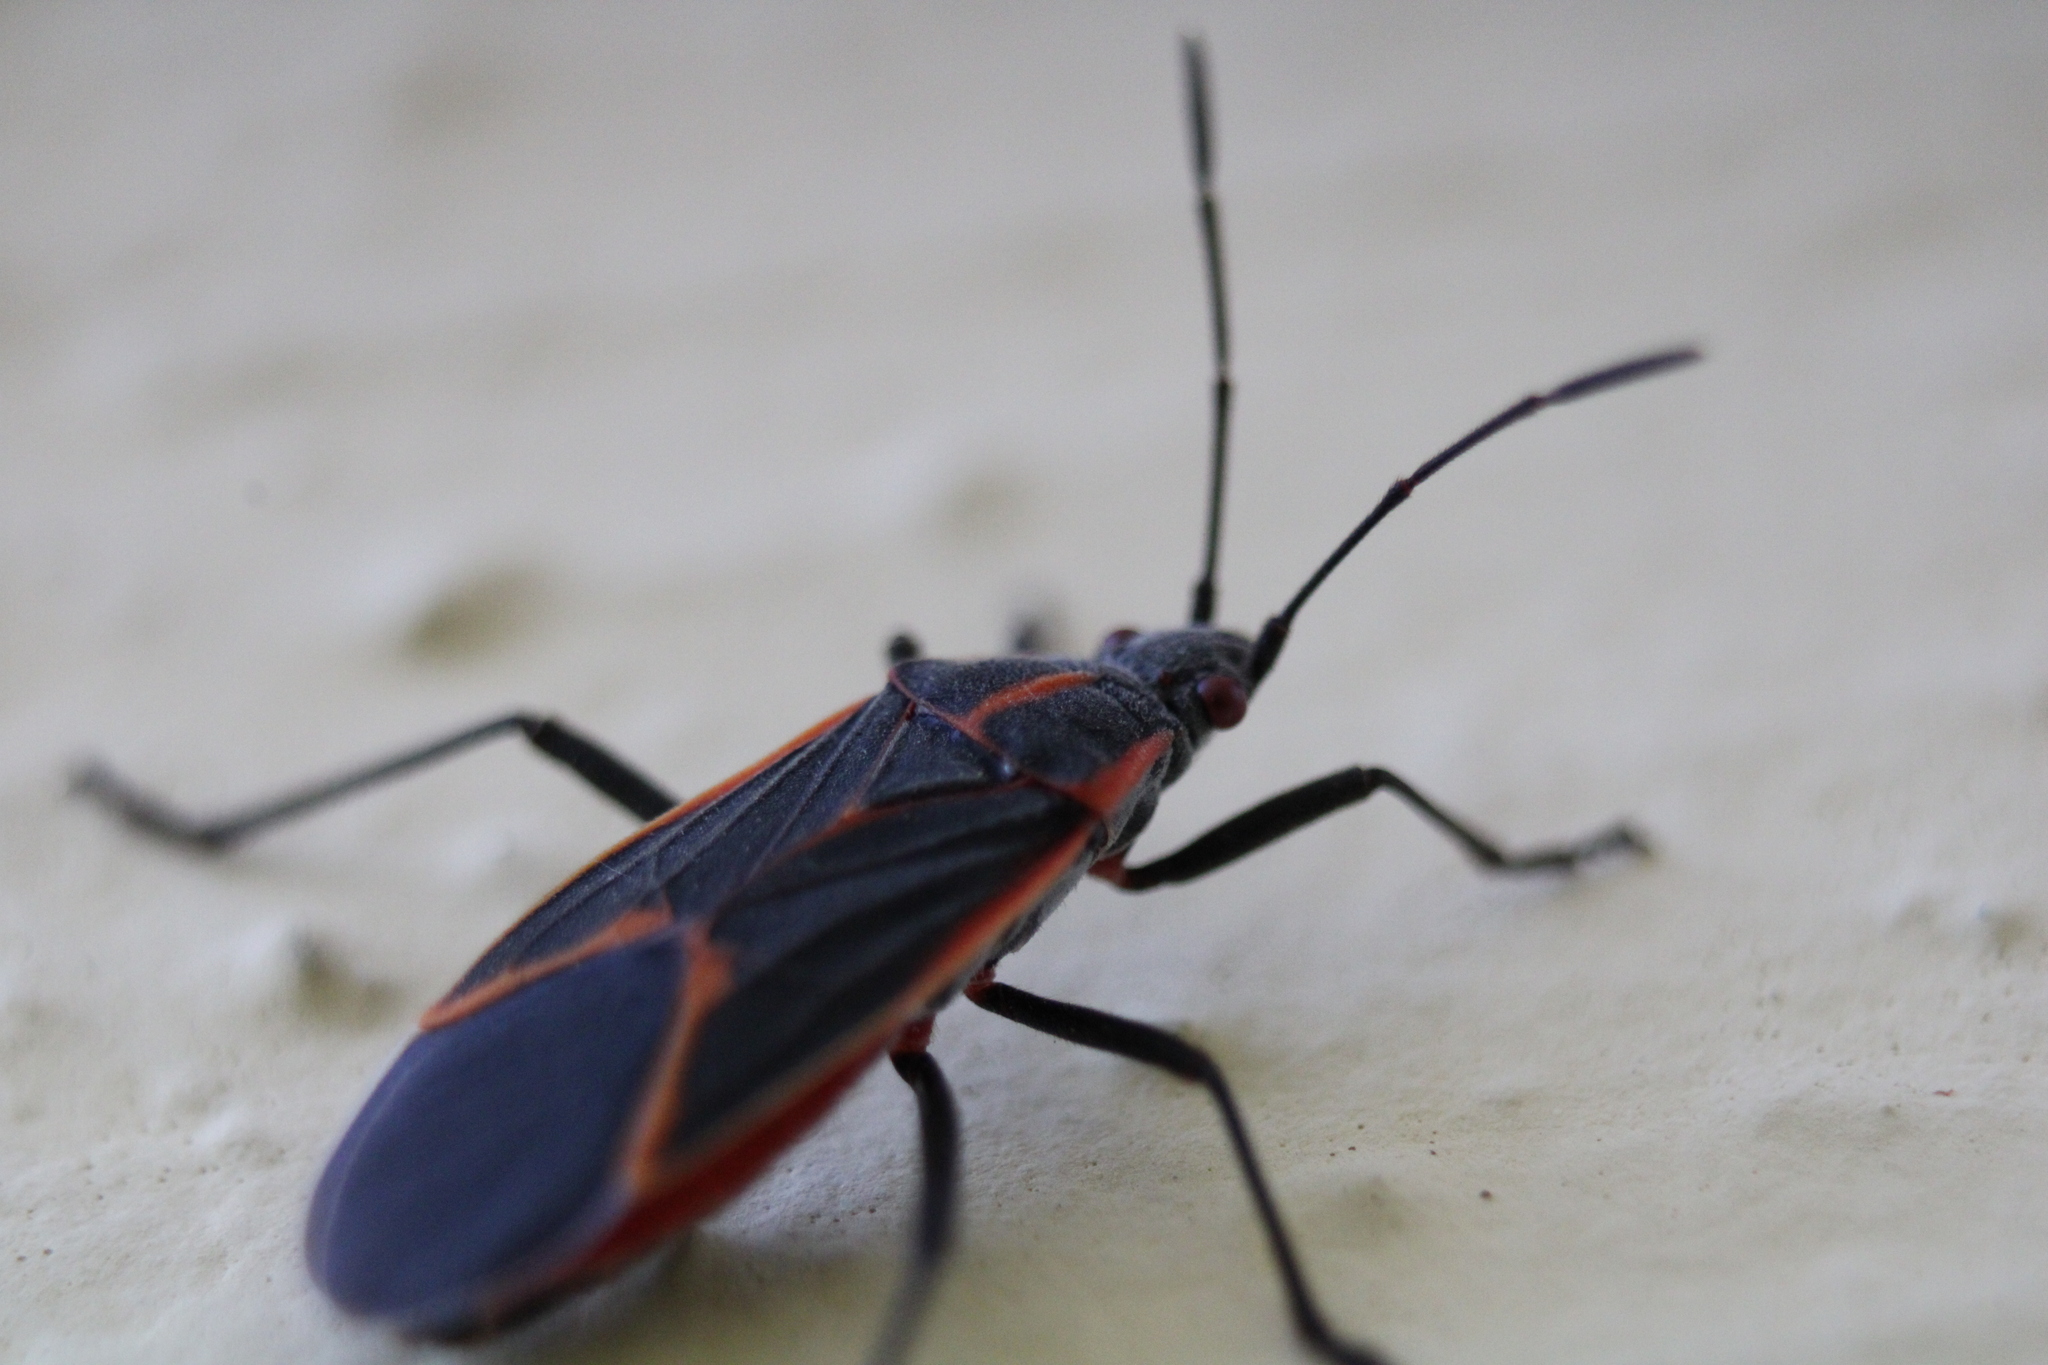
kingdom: Animalia
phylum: Arthropoda
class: Insecta
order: Hemiptera
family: Rhopalidae
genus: Boisea
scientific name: Boisea trivittata
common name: Boxelder bug
